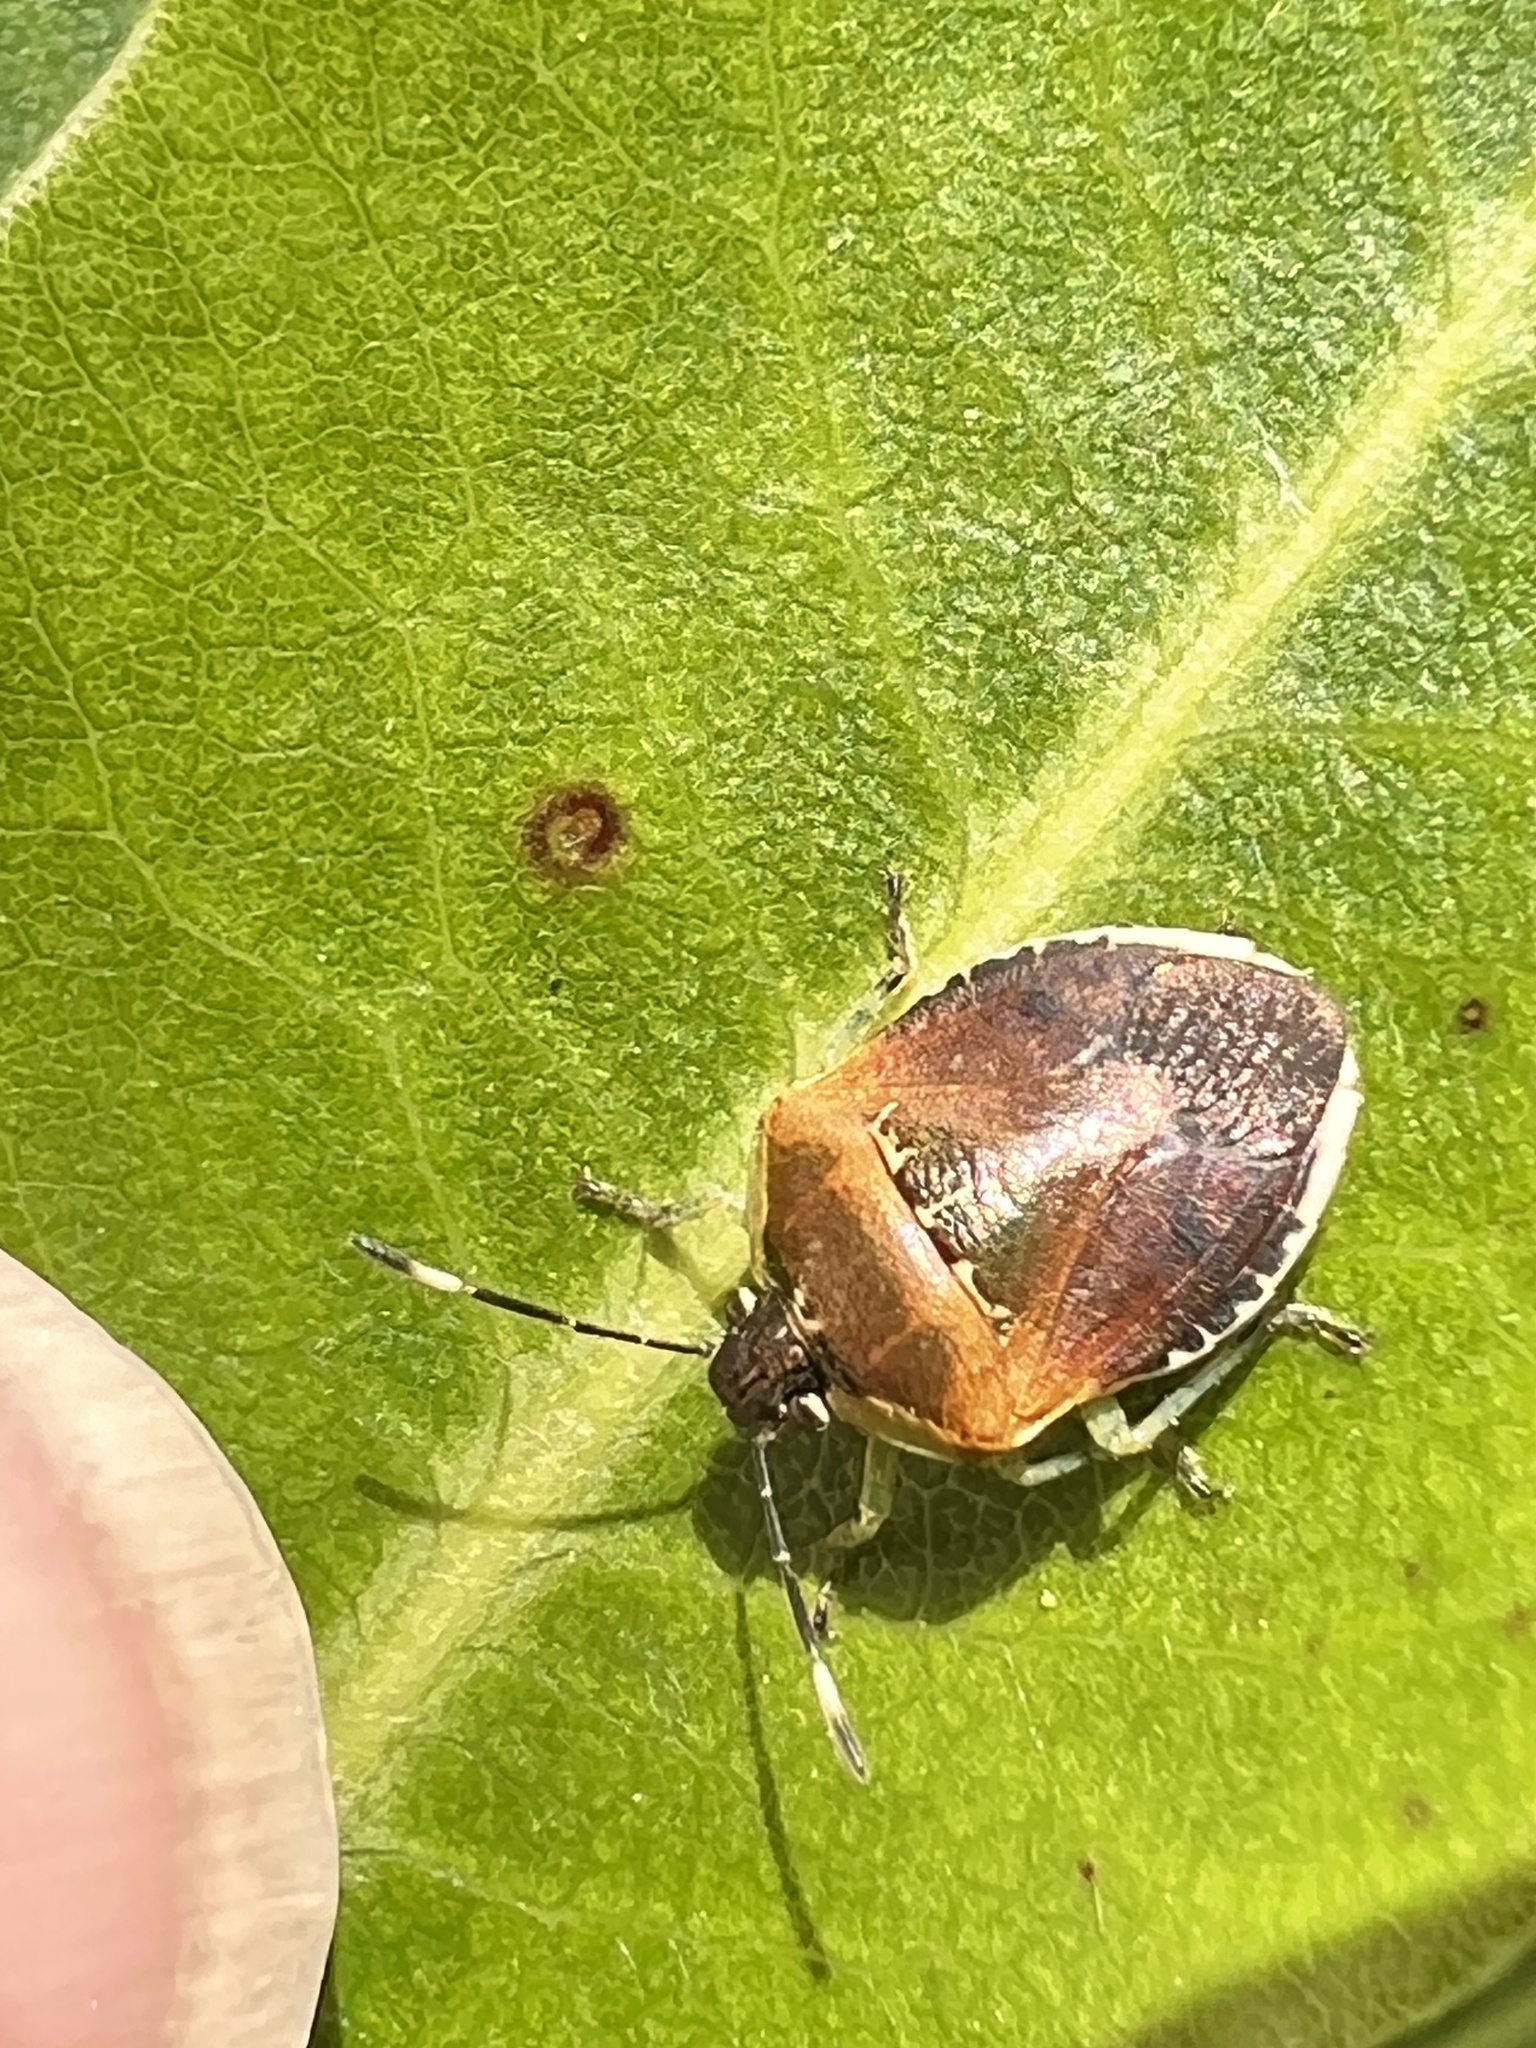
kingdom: Animalia
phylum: Arthropoda
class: Insecta
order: Hemiptera
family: Pentatomidae
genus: Monteithiella
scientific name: Monteithiella
